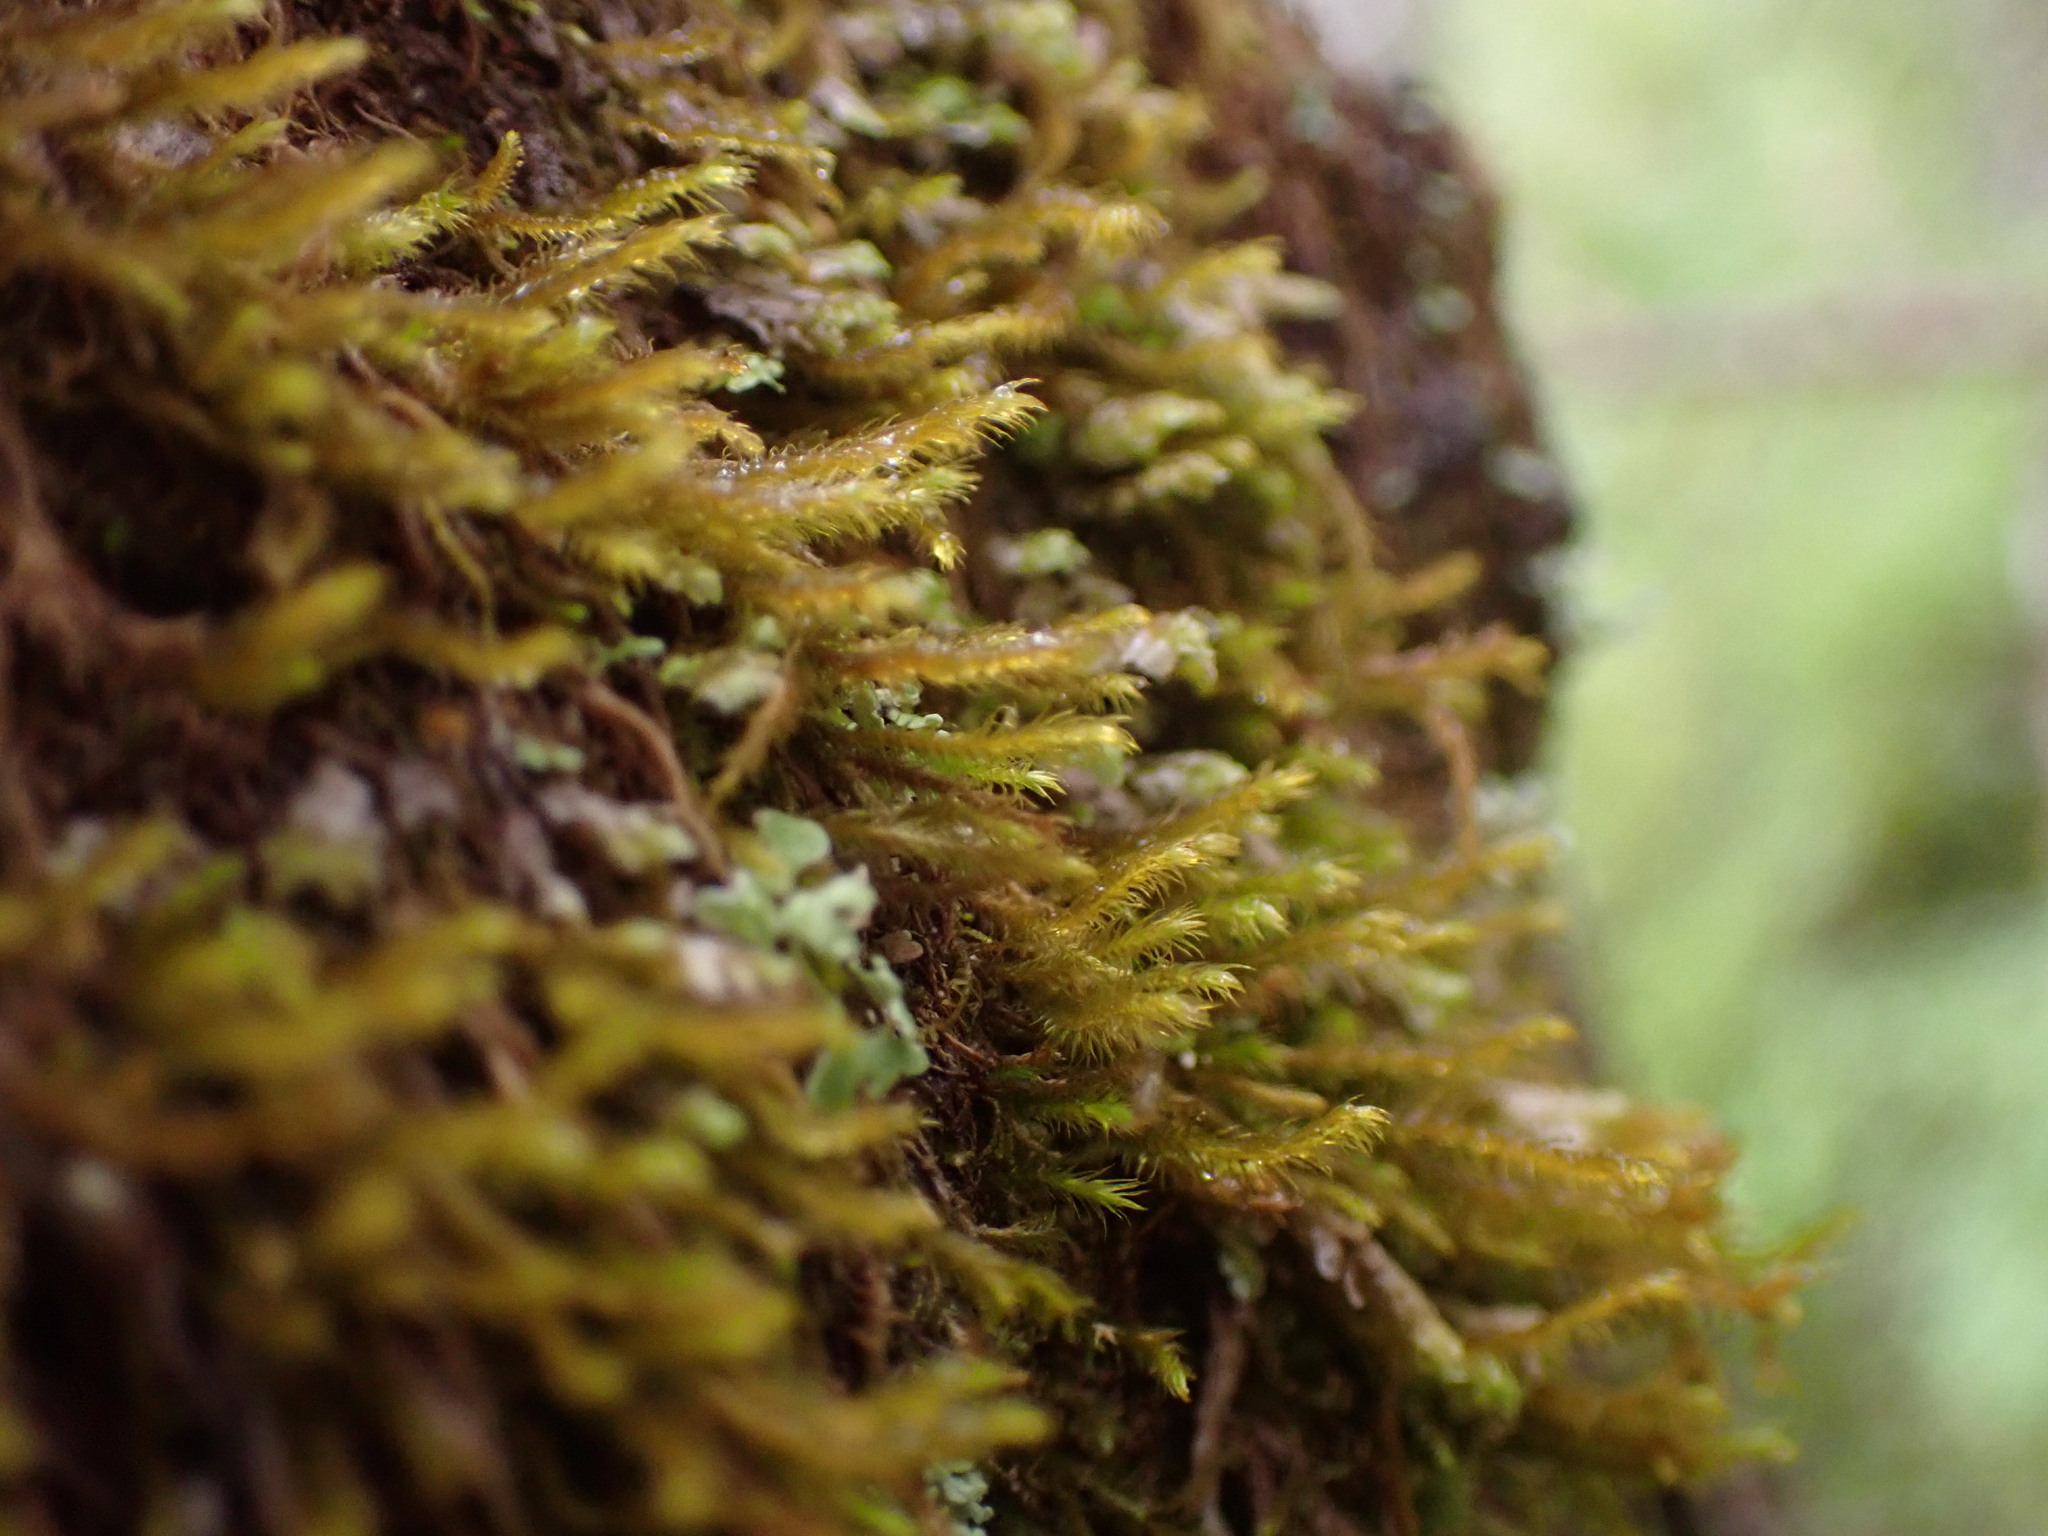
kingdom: Plantae
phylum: Marchantiophyta
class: Jungermanniopsida
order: Jungermanniales
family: Herbertaceae
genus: Herbertus
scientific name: Herbertus aduncus
